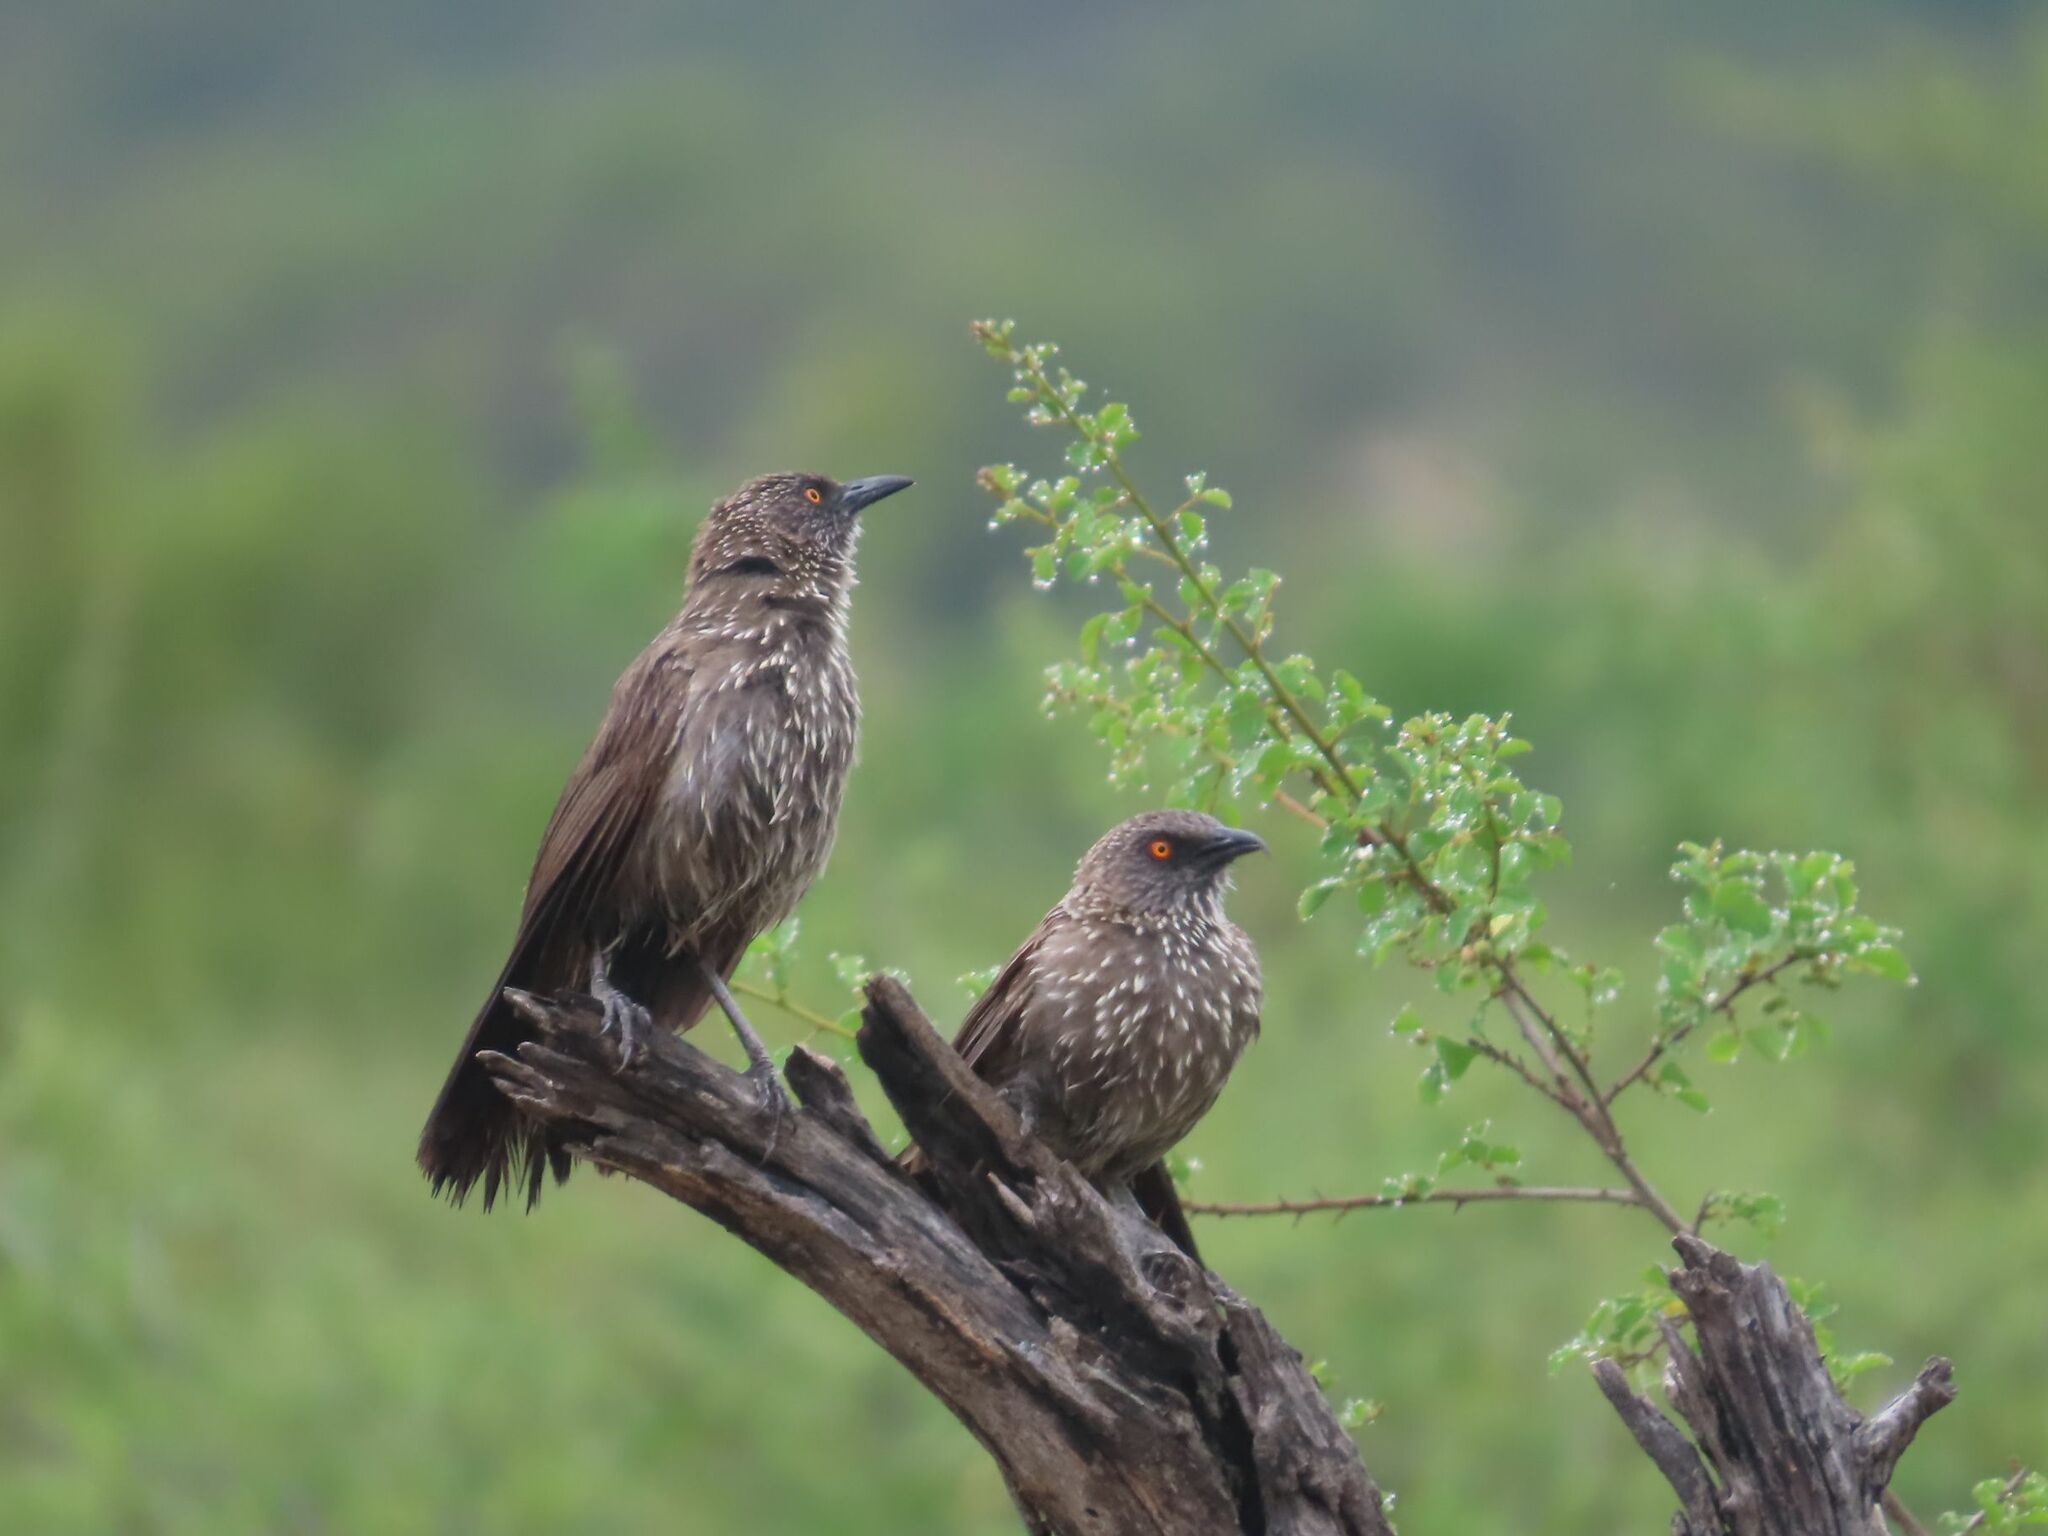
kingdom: Animalia
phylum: Chordata
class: Aves
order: Passeriformes
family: Leiothrichidae
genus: Turdoides
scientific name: Turdoides jardineii
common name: Arrow-marked babbler
